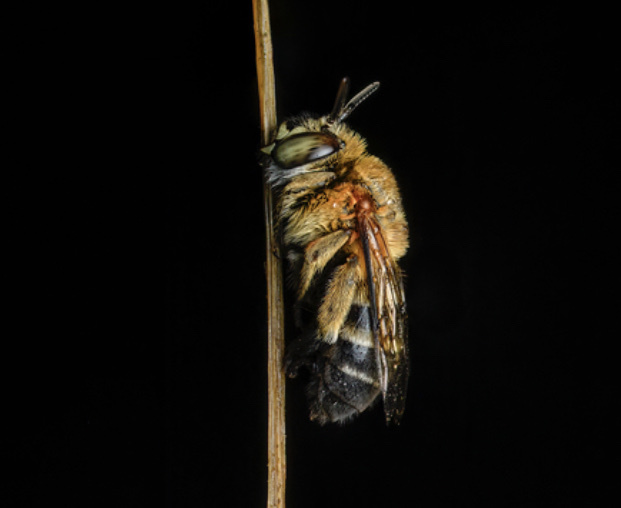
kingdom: Animalia
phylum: Arthropoda
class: Insecta
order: Hymenoptera
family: Apidae
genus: Amegilla
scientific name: Amegilla mesopyrrha
